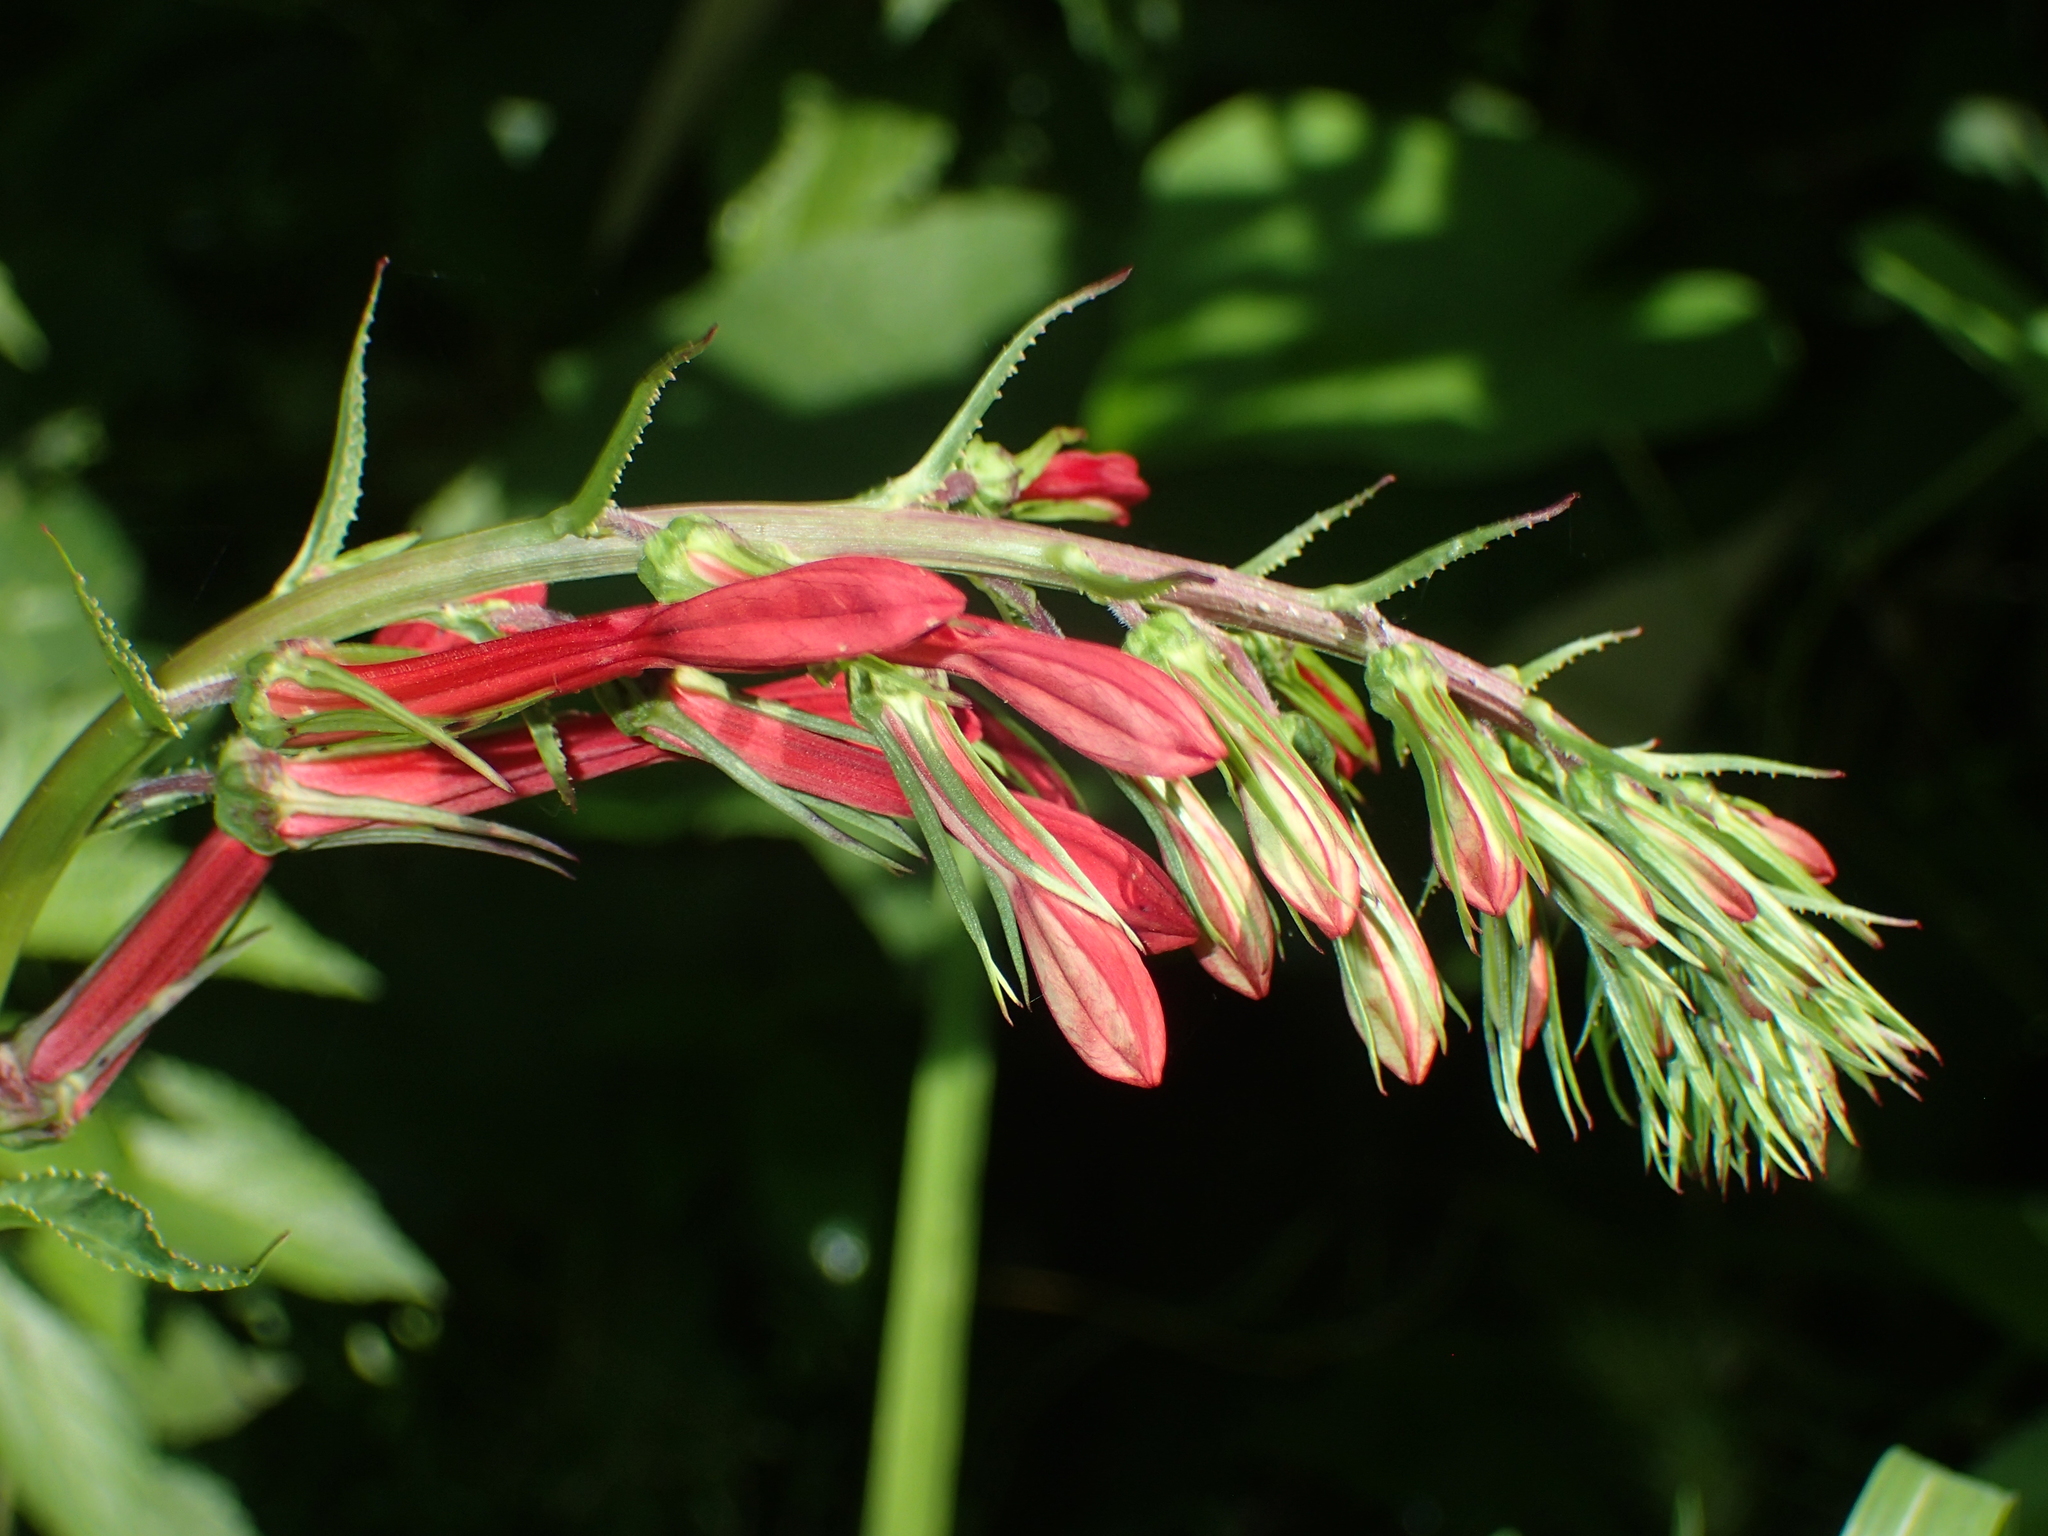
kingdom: Plantae
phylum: Tracheophyta
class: Magnoliopsida
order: Asterales
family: Campanulaceae
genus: Lobelia
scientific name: Lobelia cardinalis
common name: Cardinal flower
